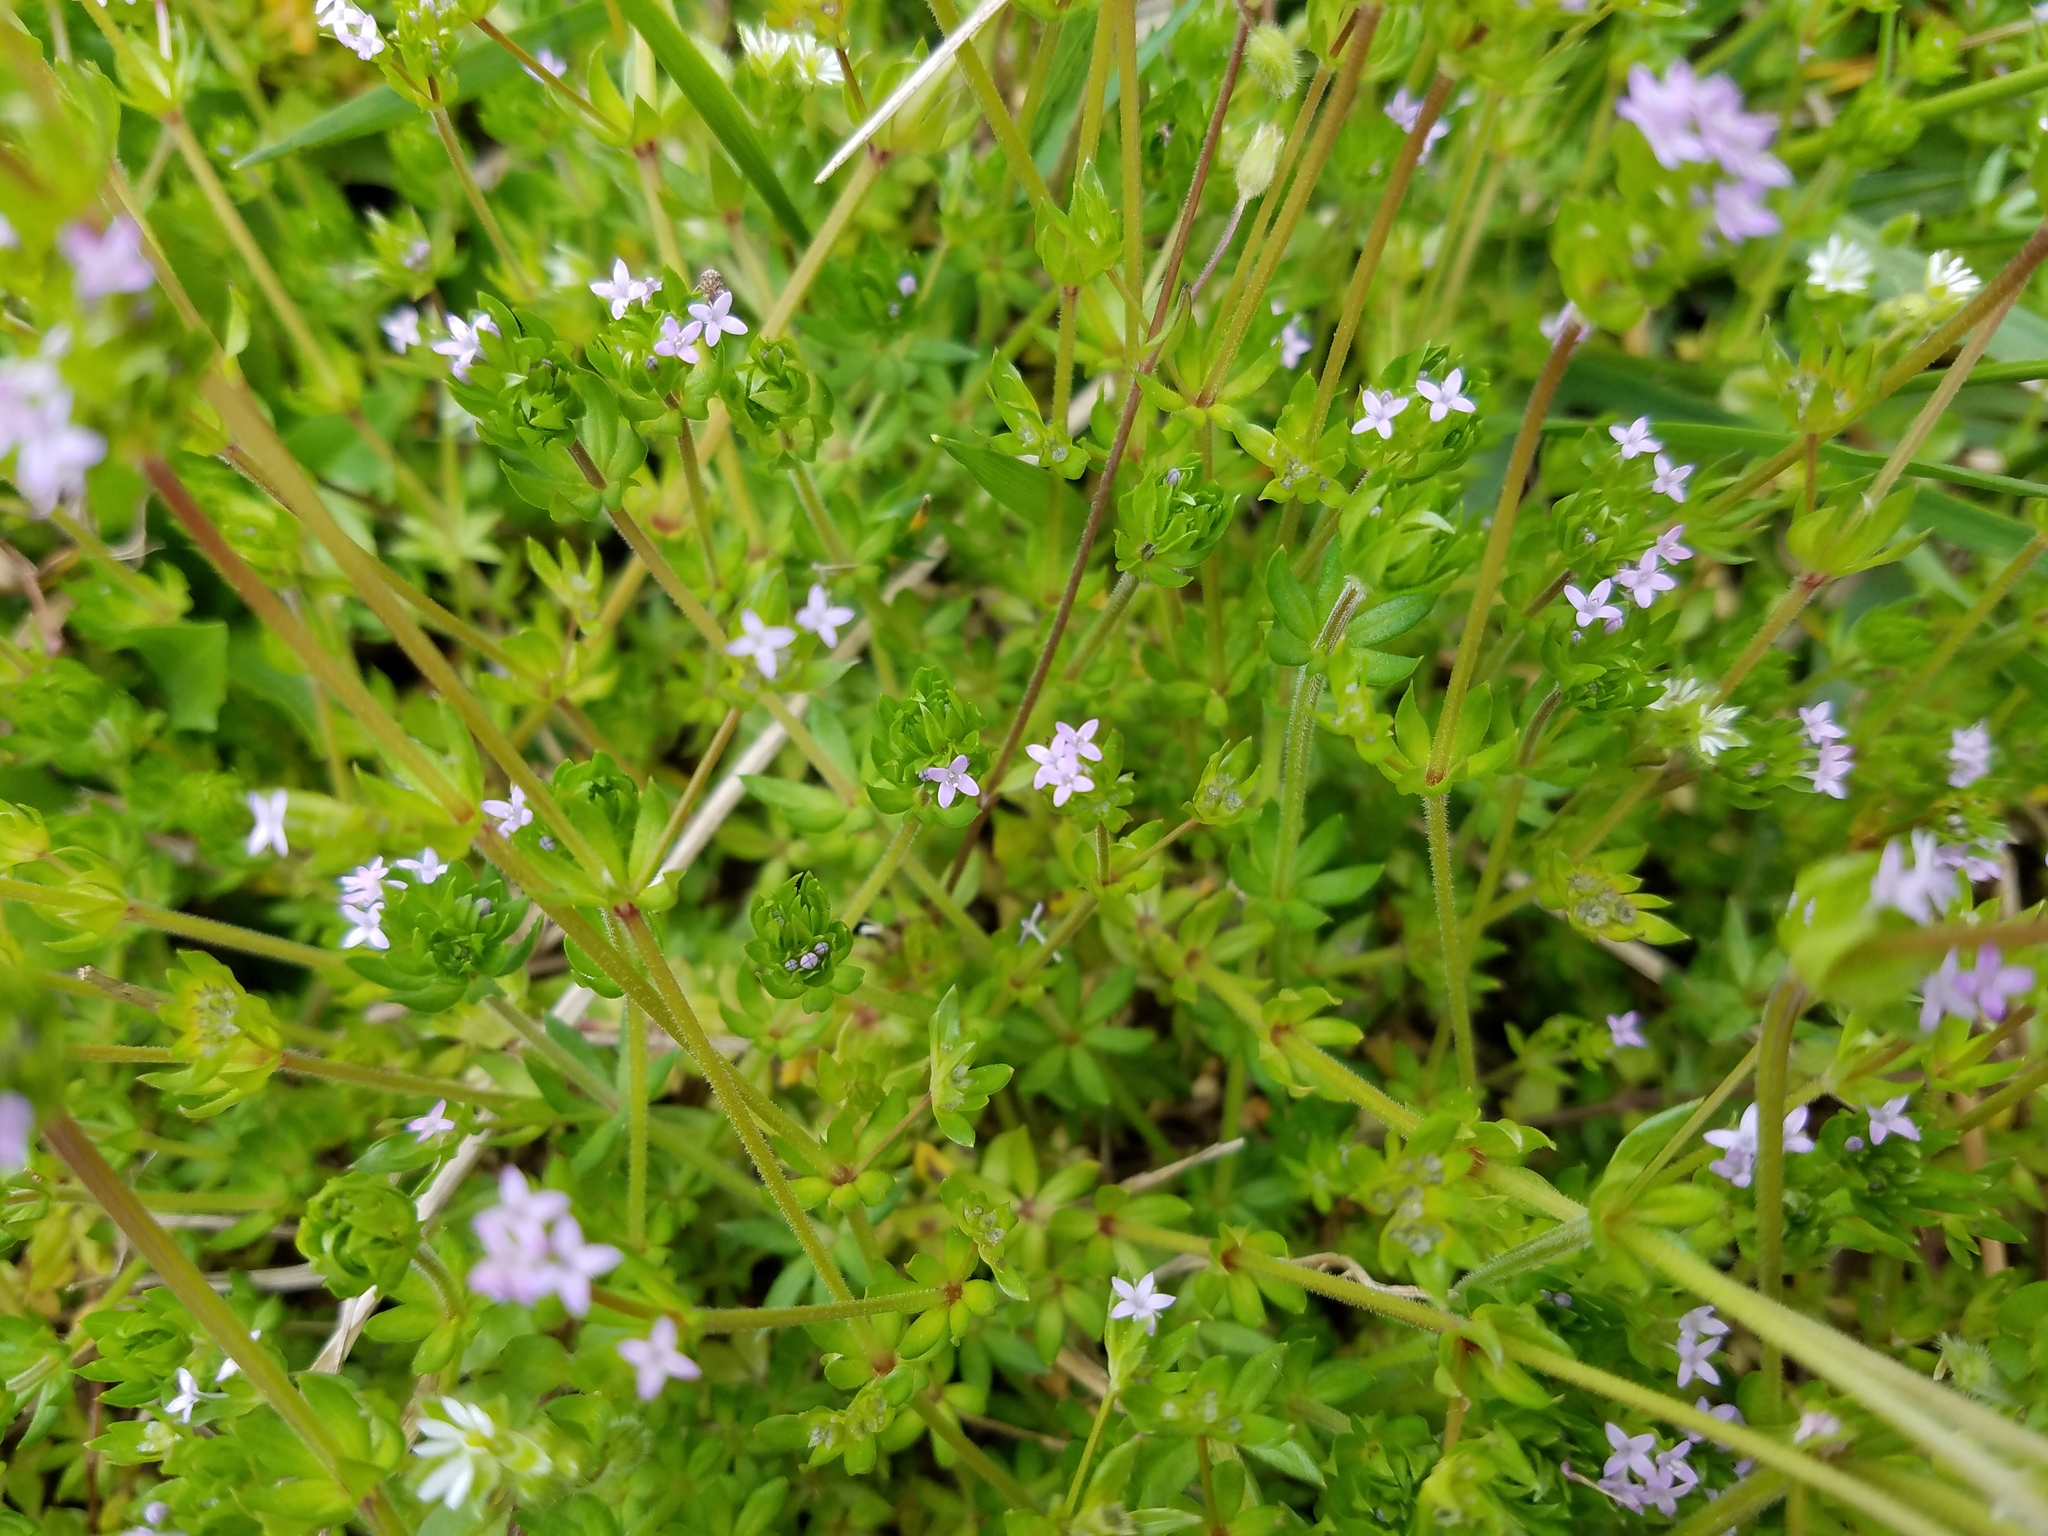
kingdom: Plantae
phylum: Tracheophyta
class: Magnoliopsida
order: Gentianales
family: Rubiaceae
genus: Sherardia
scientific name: Sherardia arvensis
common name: Field madder
